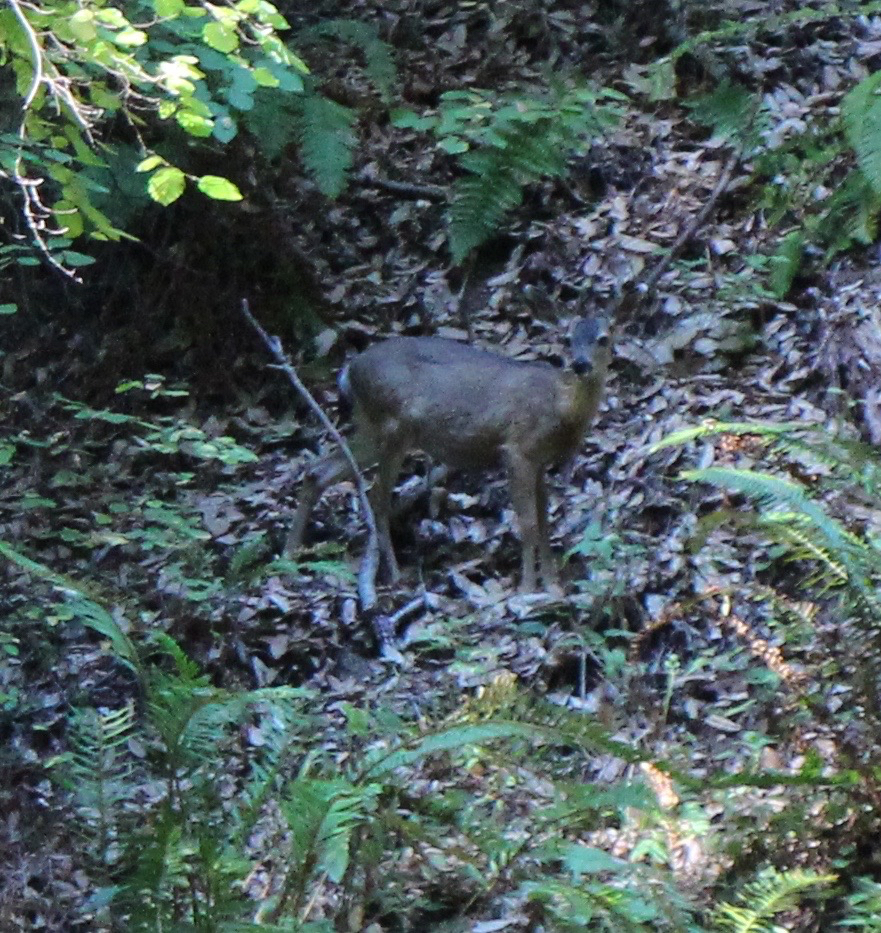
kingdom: Animalia
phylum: Chordata
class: Mammalia
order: Artiodactyla
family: Cervidae
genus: Odocoileus
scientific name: Odocoileus hemionus
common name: Mule deer
